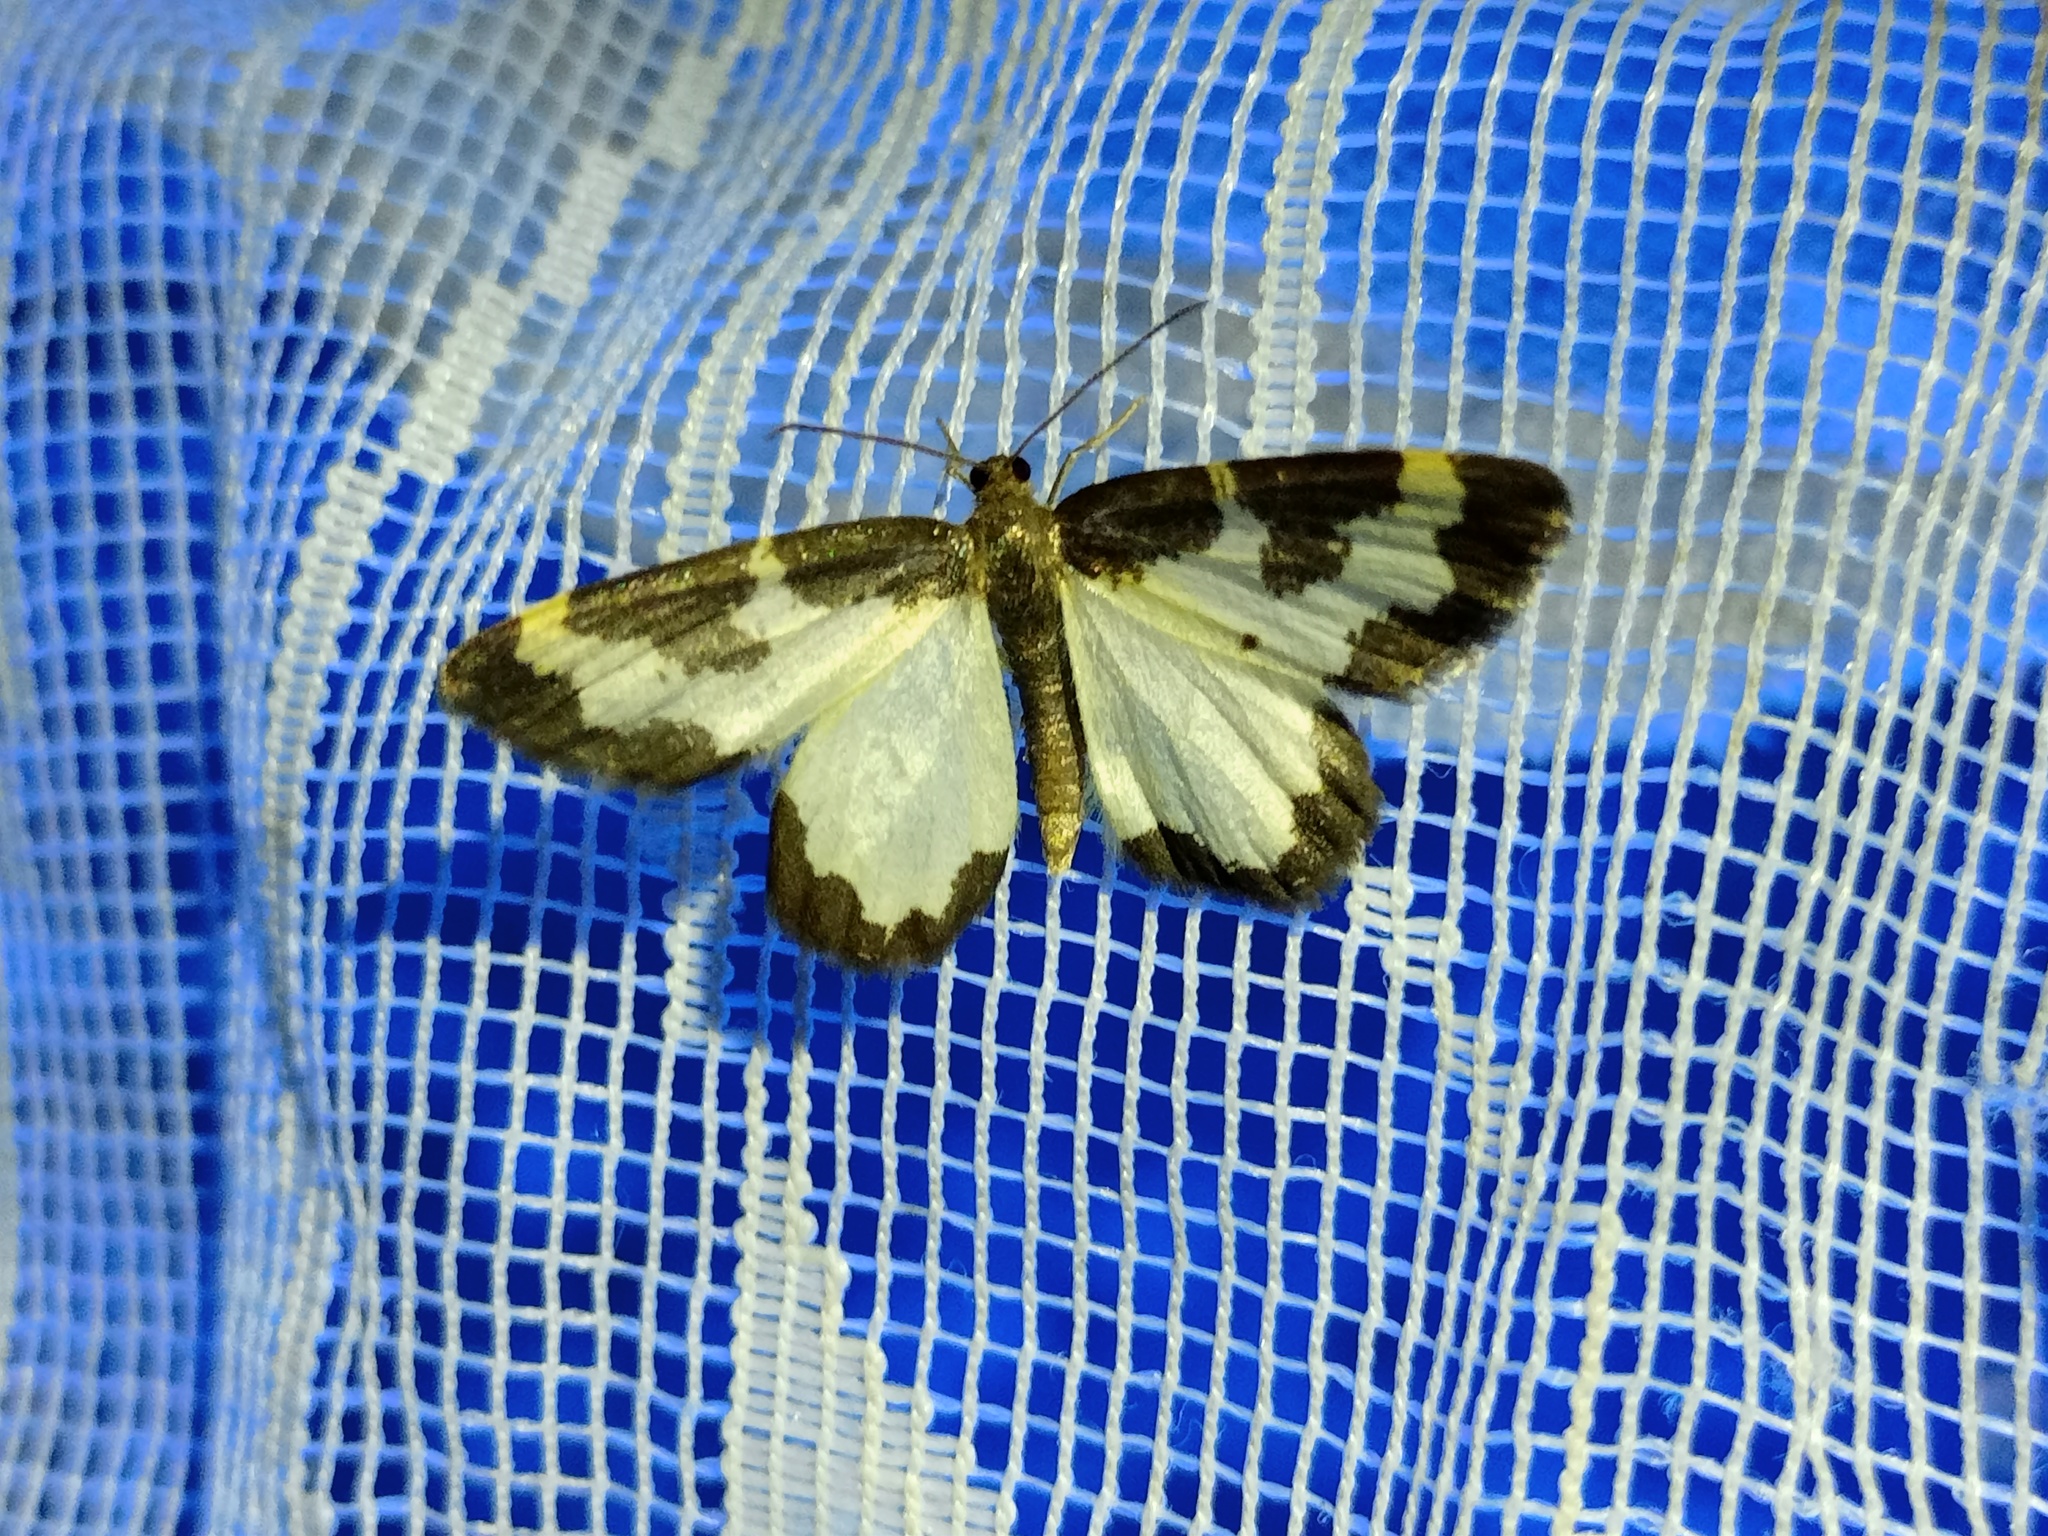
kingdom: Animalia
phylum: Arthropoda
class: Insecta
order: Lepidoptera
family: Geometridae
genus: Lomaspilis
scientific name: Lomaspilis marginata
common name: Clouded border
